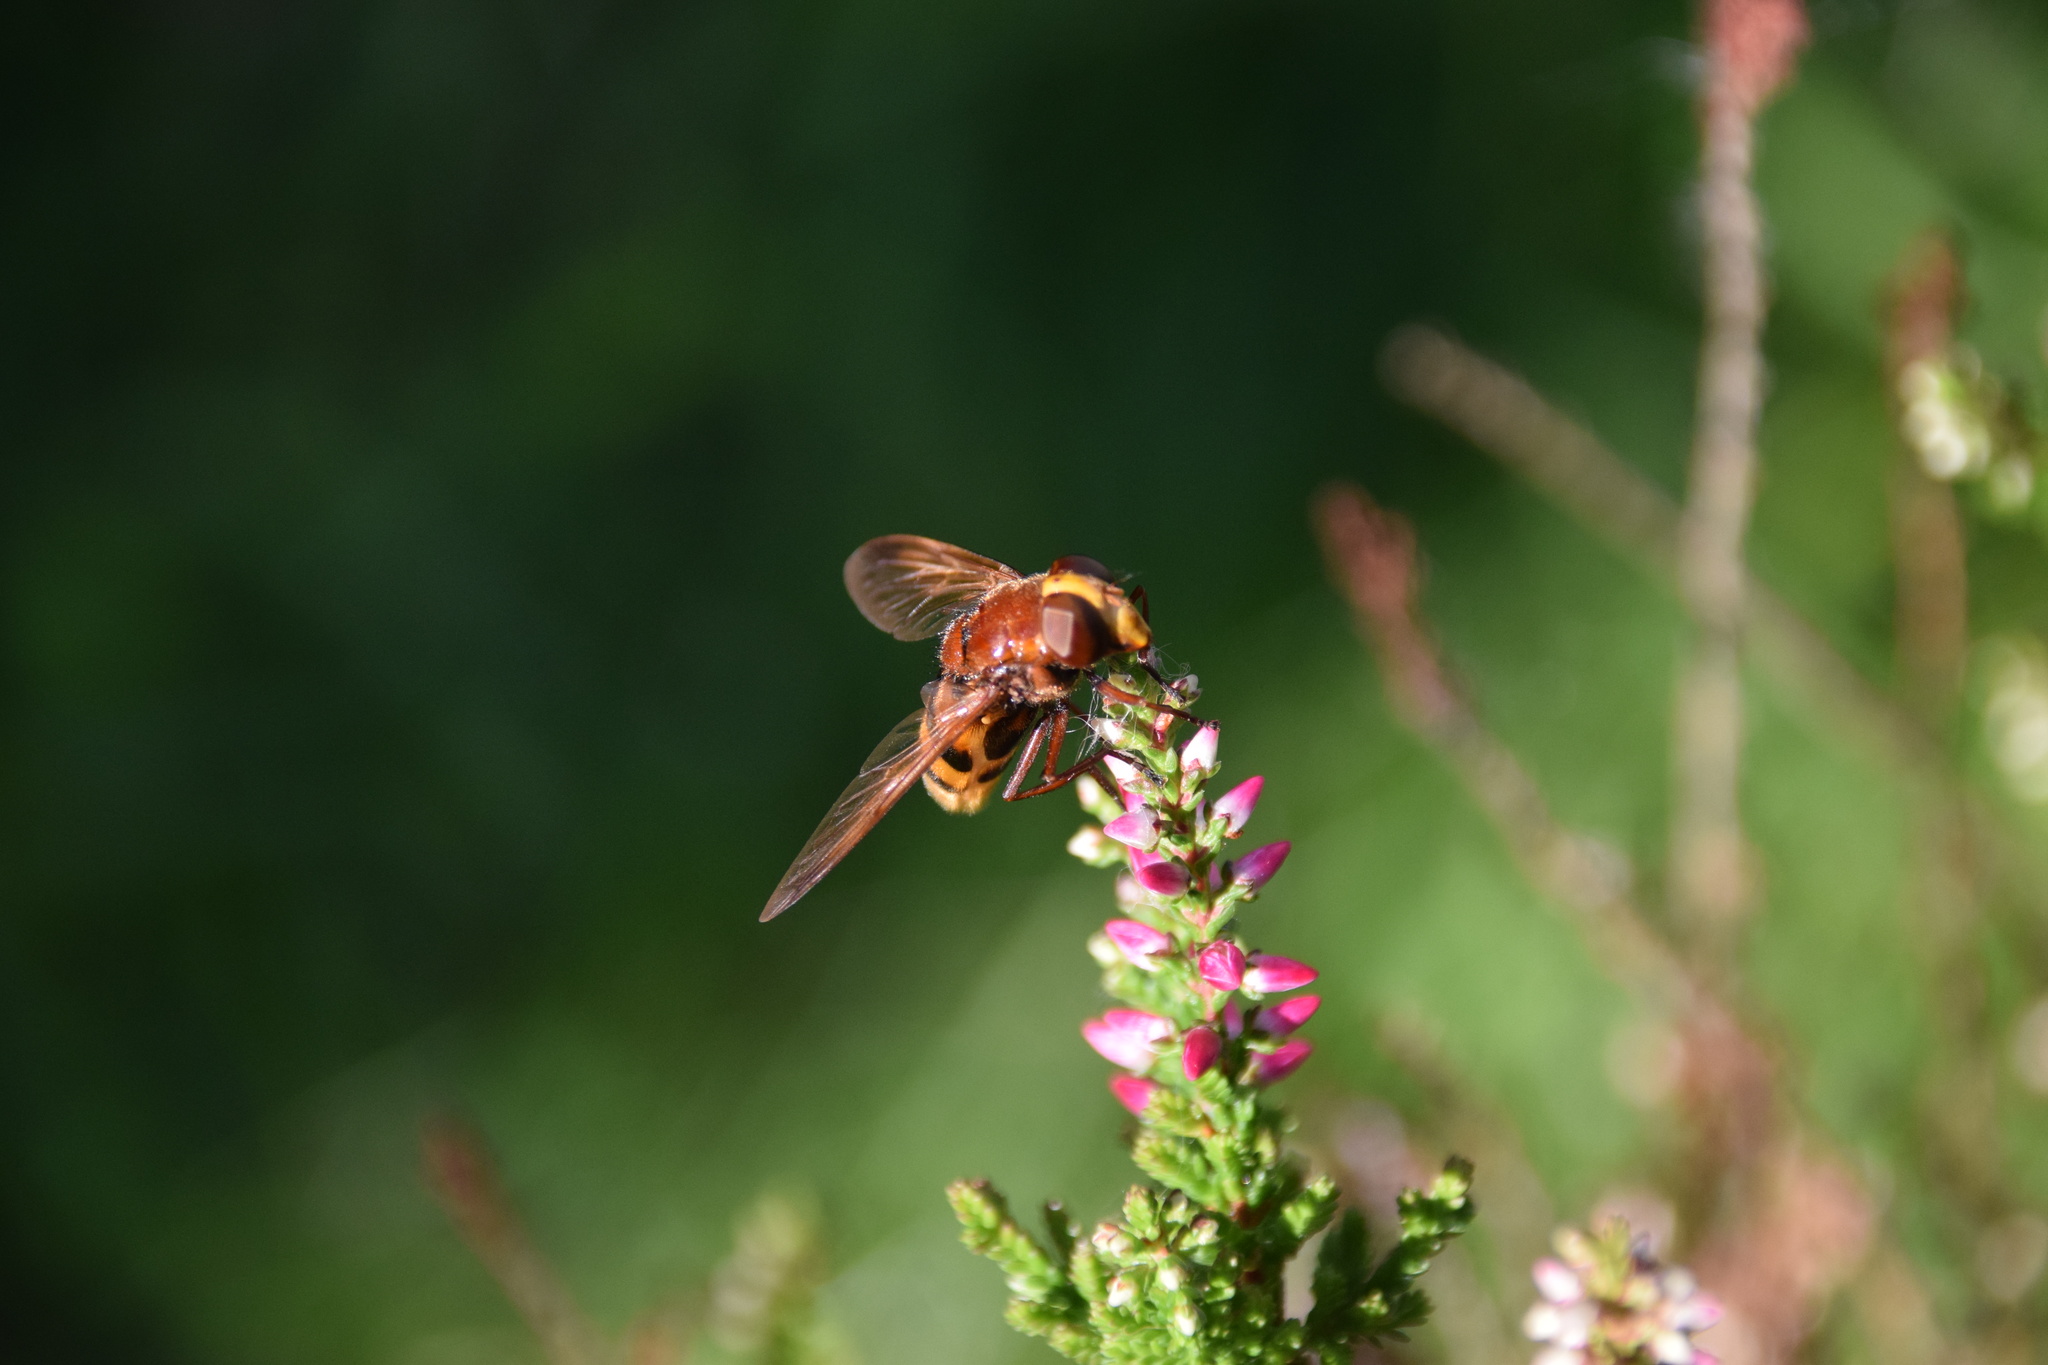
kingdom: Animalia
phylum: Arthropoda
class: Insecta
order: Diptera
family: Syrphidae
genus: Volucella
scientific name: Volucella zonaria
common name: Hornet hoverfly
